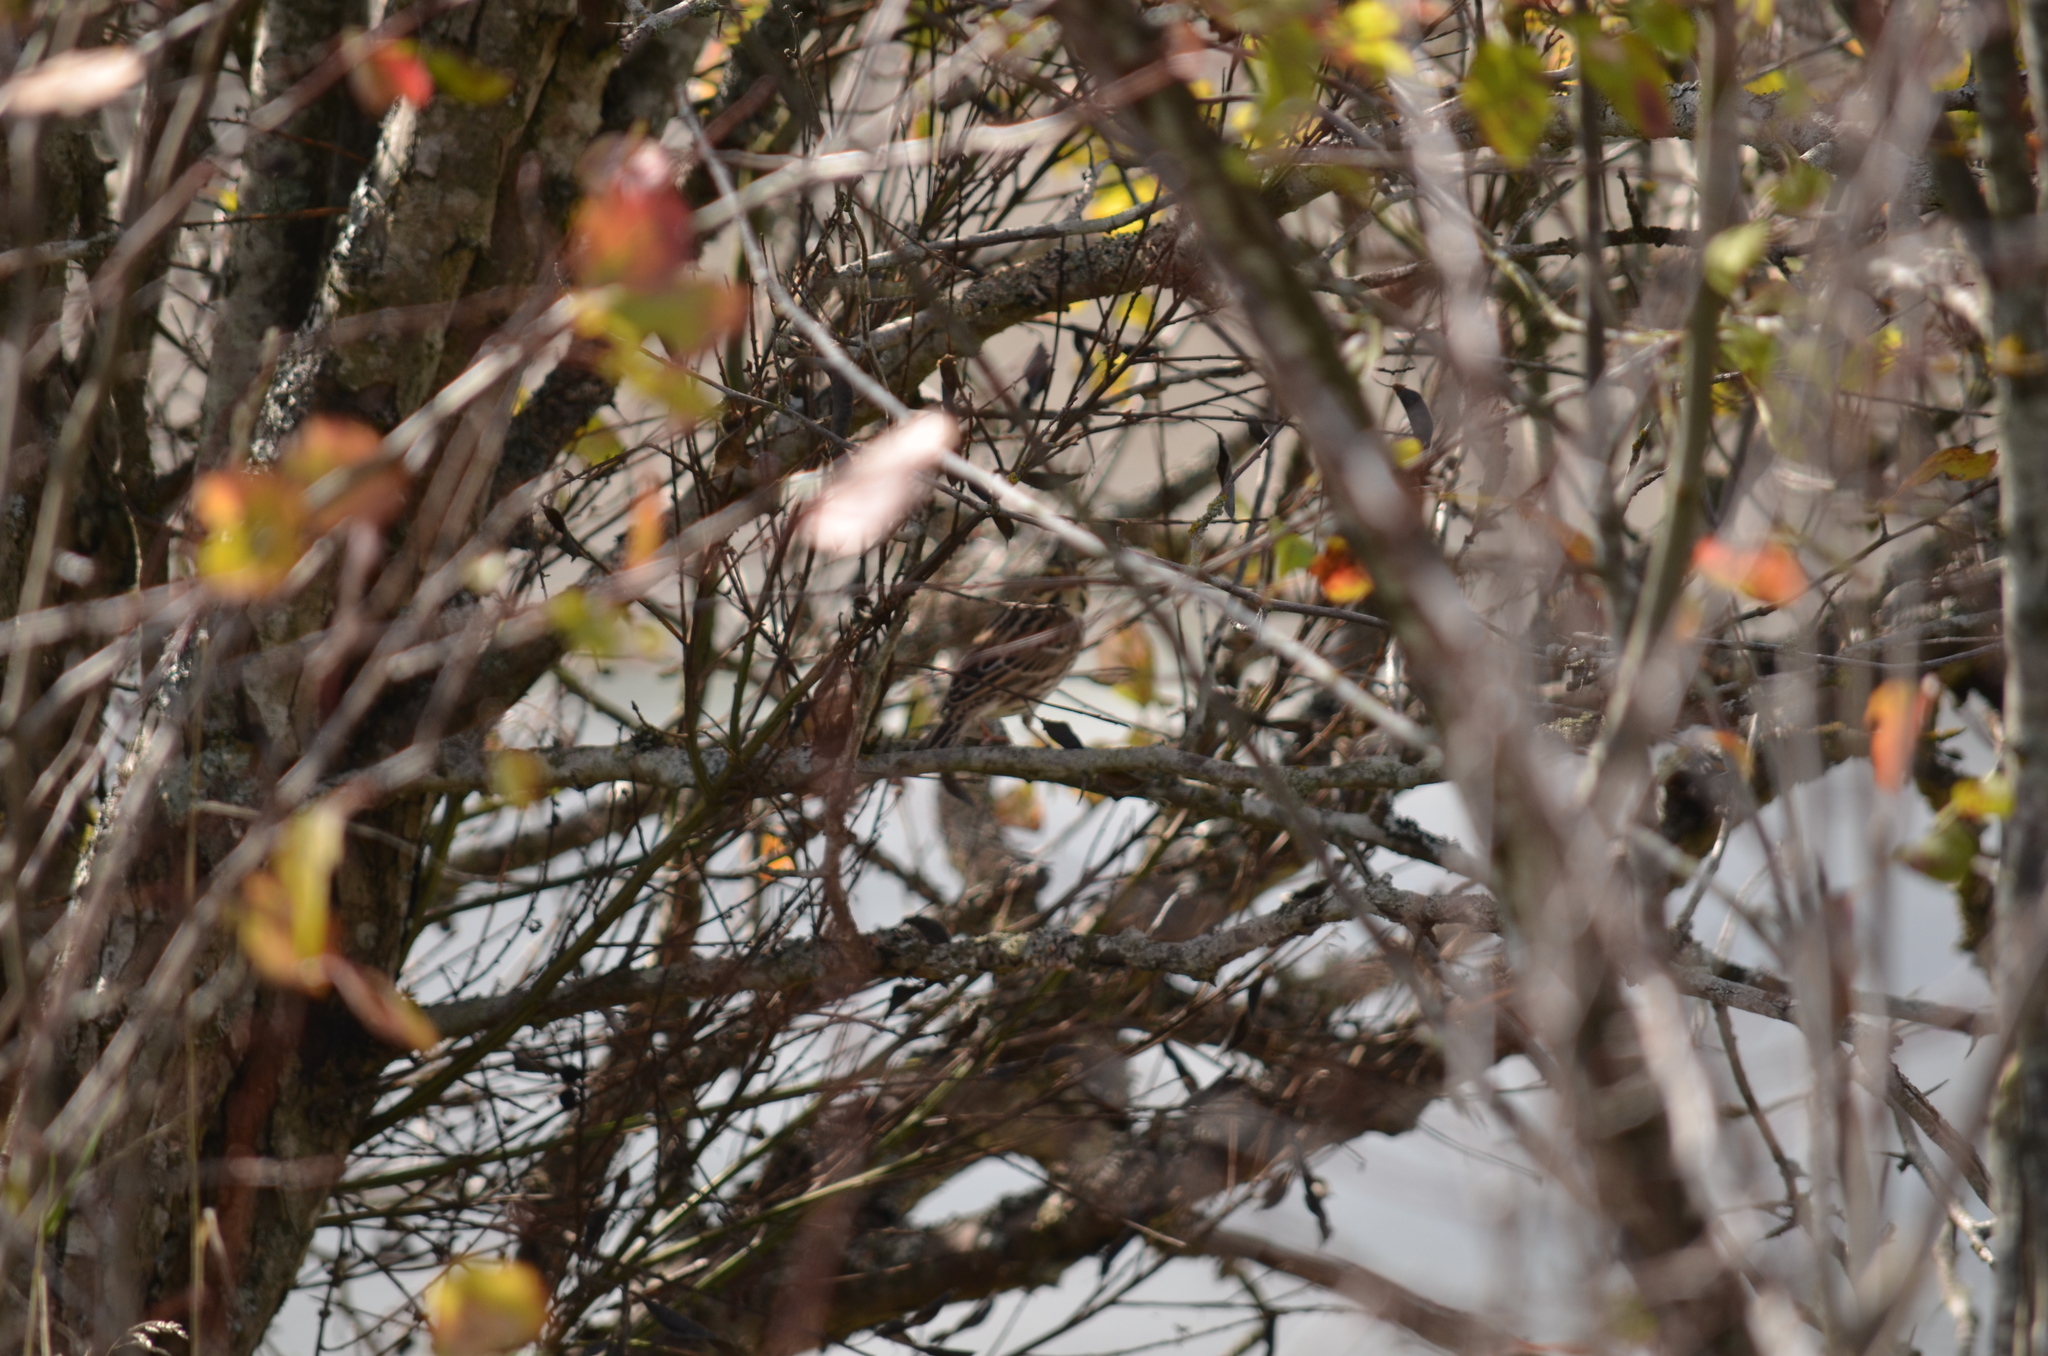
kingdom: Animalia
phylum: Chordata
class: Aves
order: Passeriformes
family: Passerellidae
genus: Passerculus
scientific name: Passerculus sandwichensis
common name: Savannah sparrow
